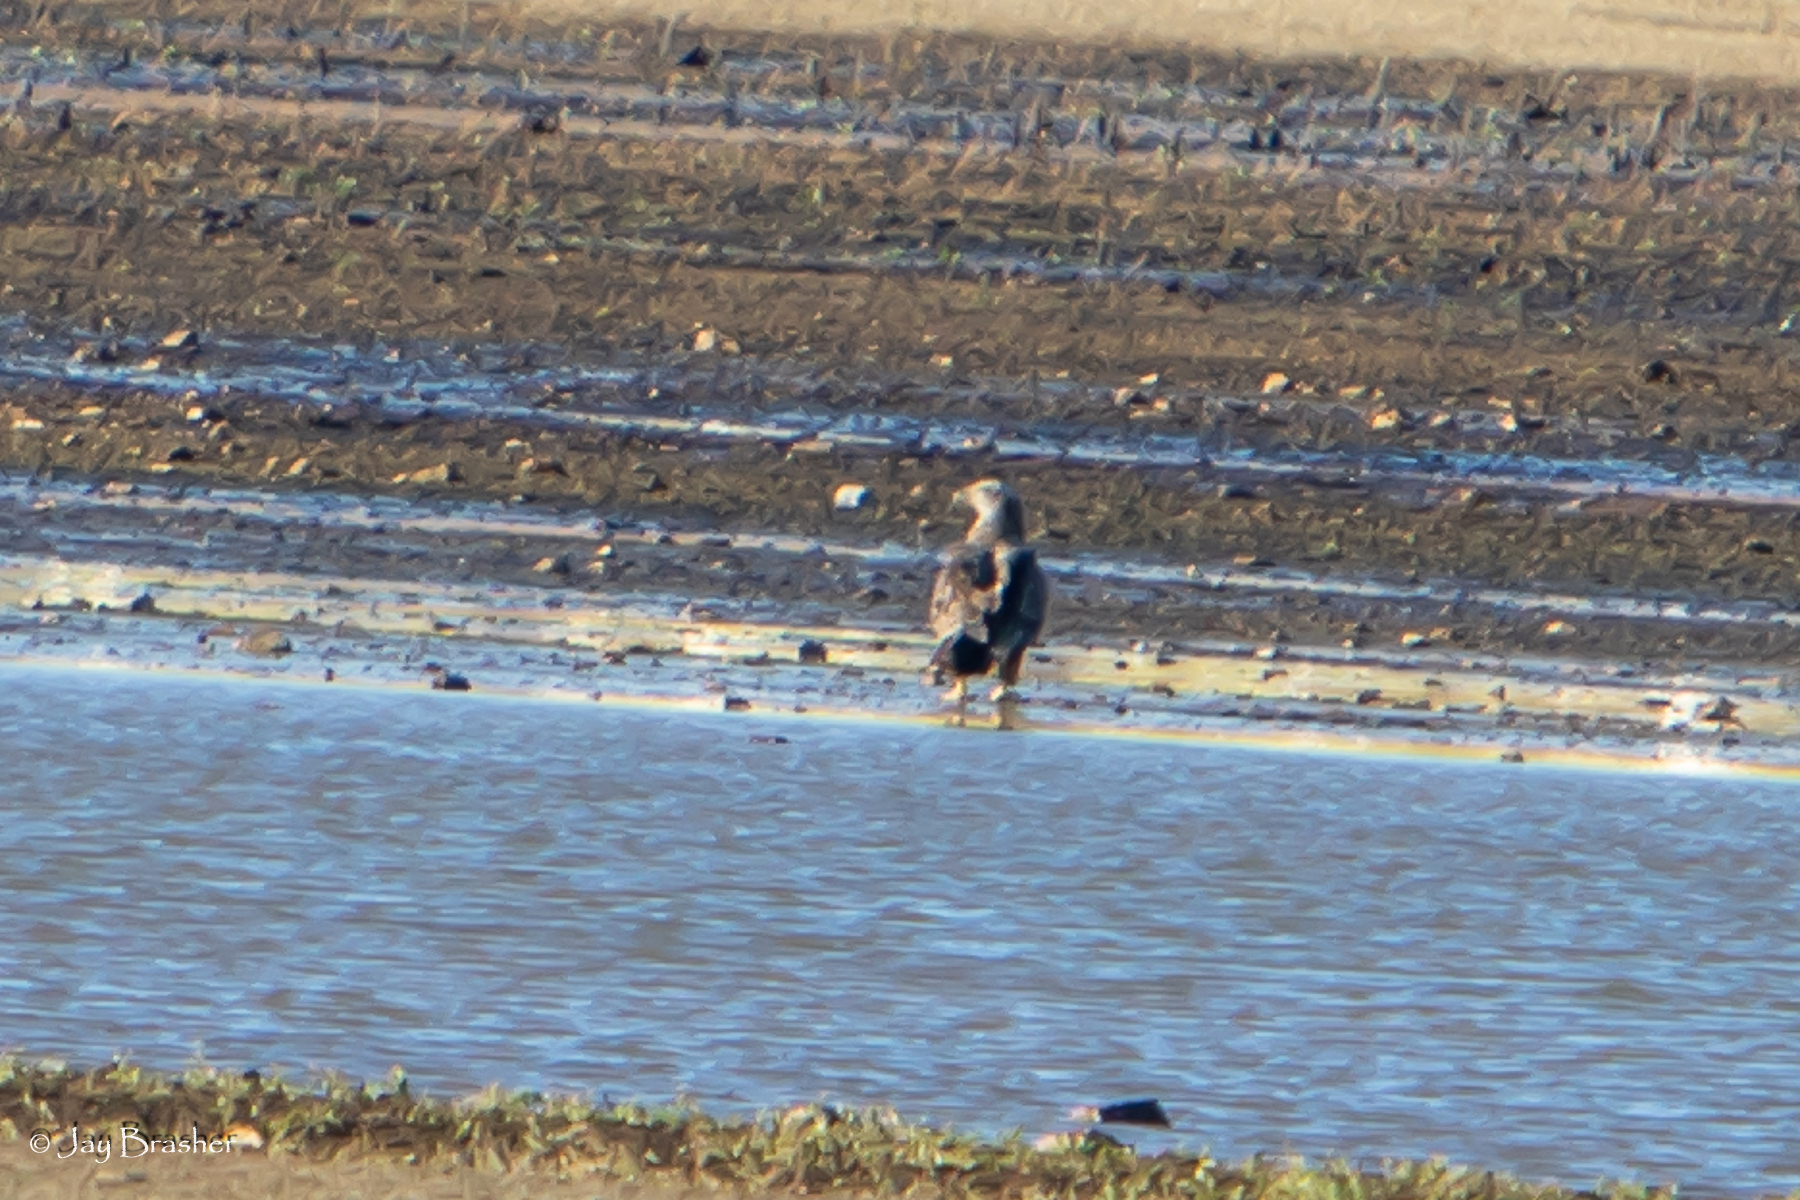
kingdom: Animalia
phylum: Chordata
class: Aves
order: Accipitriformes
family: Accipitridae
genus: Haliaeetus
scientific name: Haliaeetus leucocephalus
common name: Bald eagle
